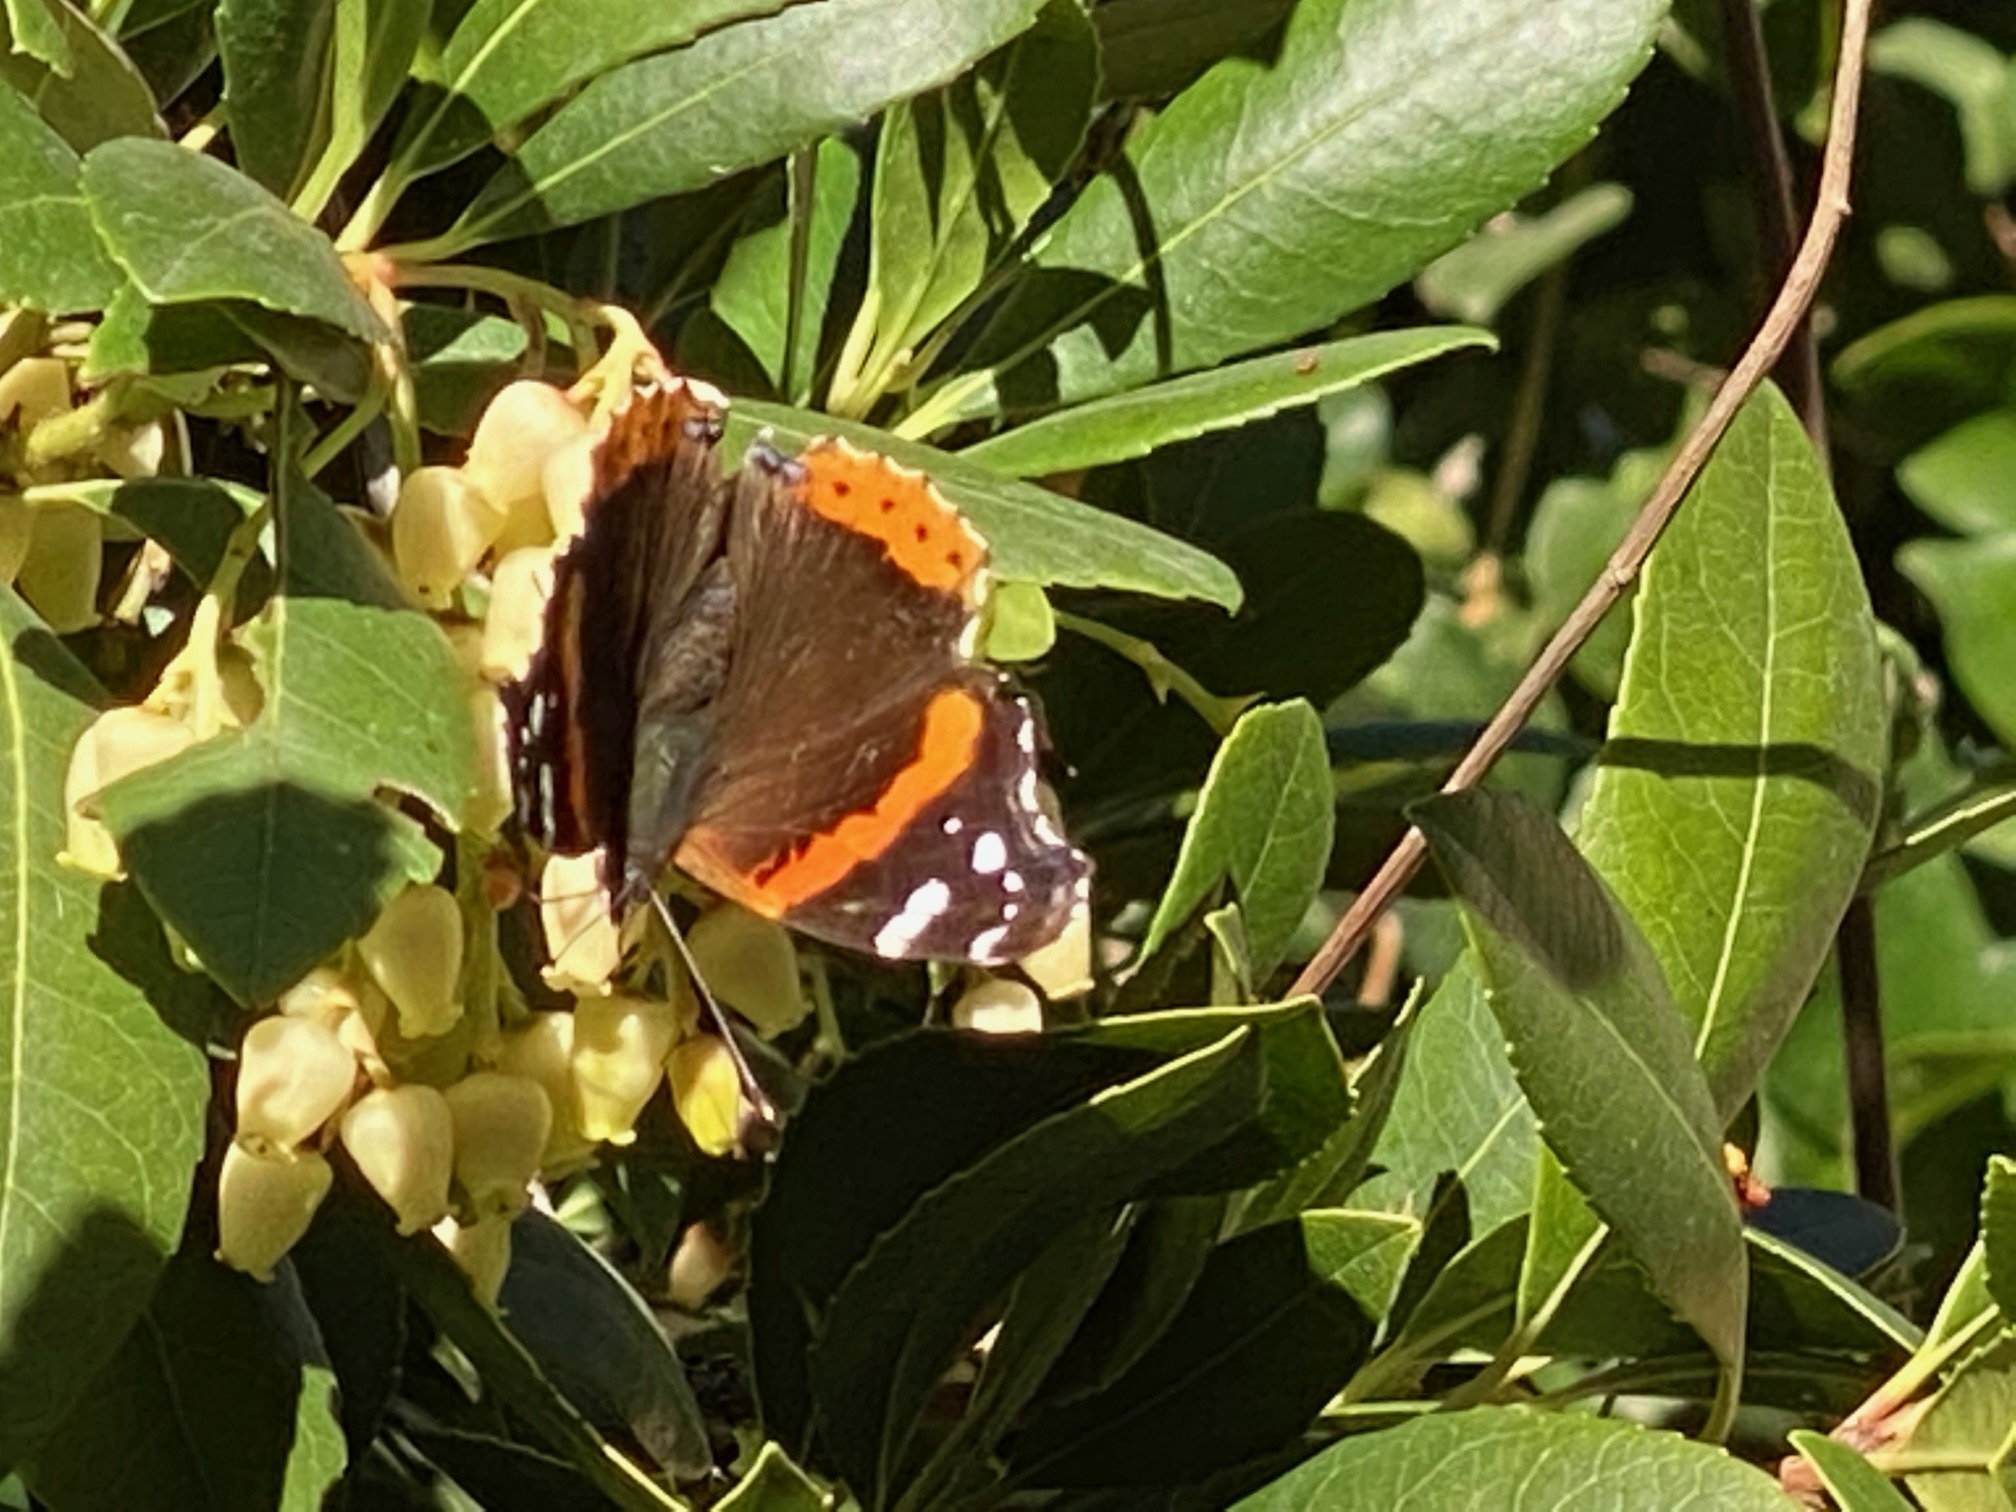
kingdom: Animalia
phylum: Arthropoda
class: Insecta
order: Lepidoptera
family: Nymphalidae
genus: Vanessa
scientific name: Vanessa atalanta
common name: Red admiral
